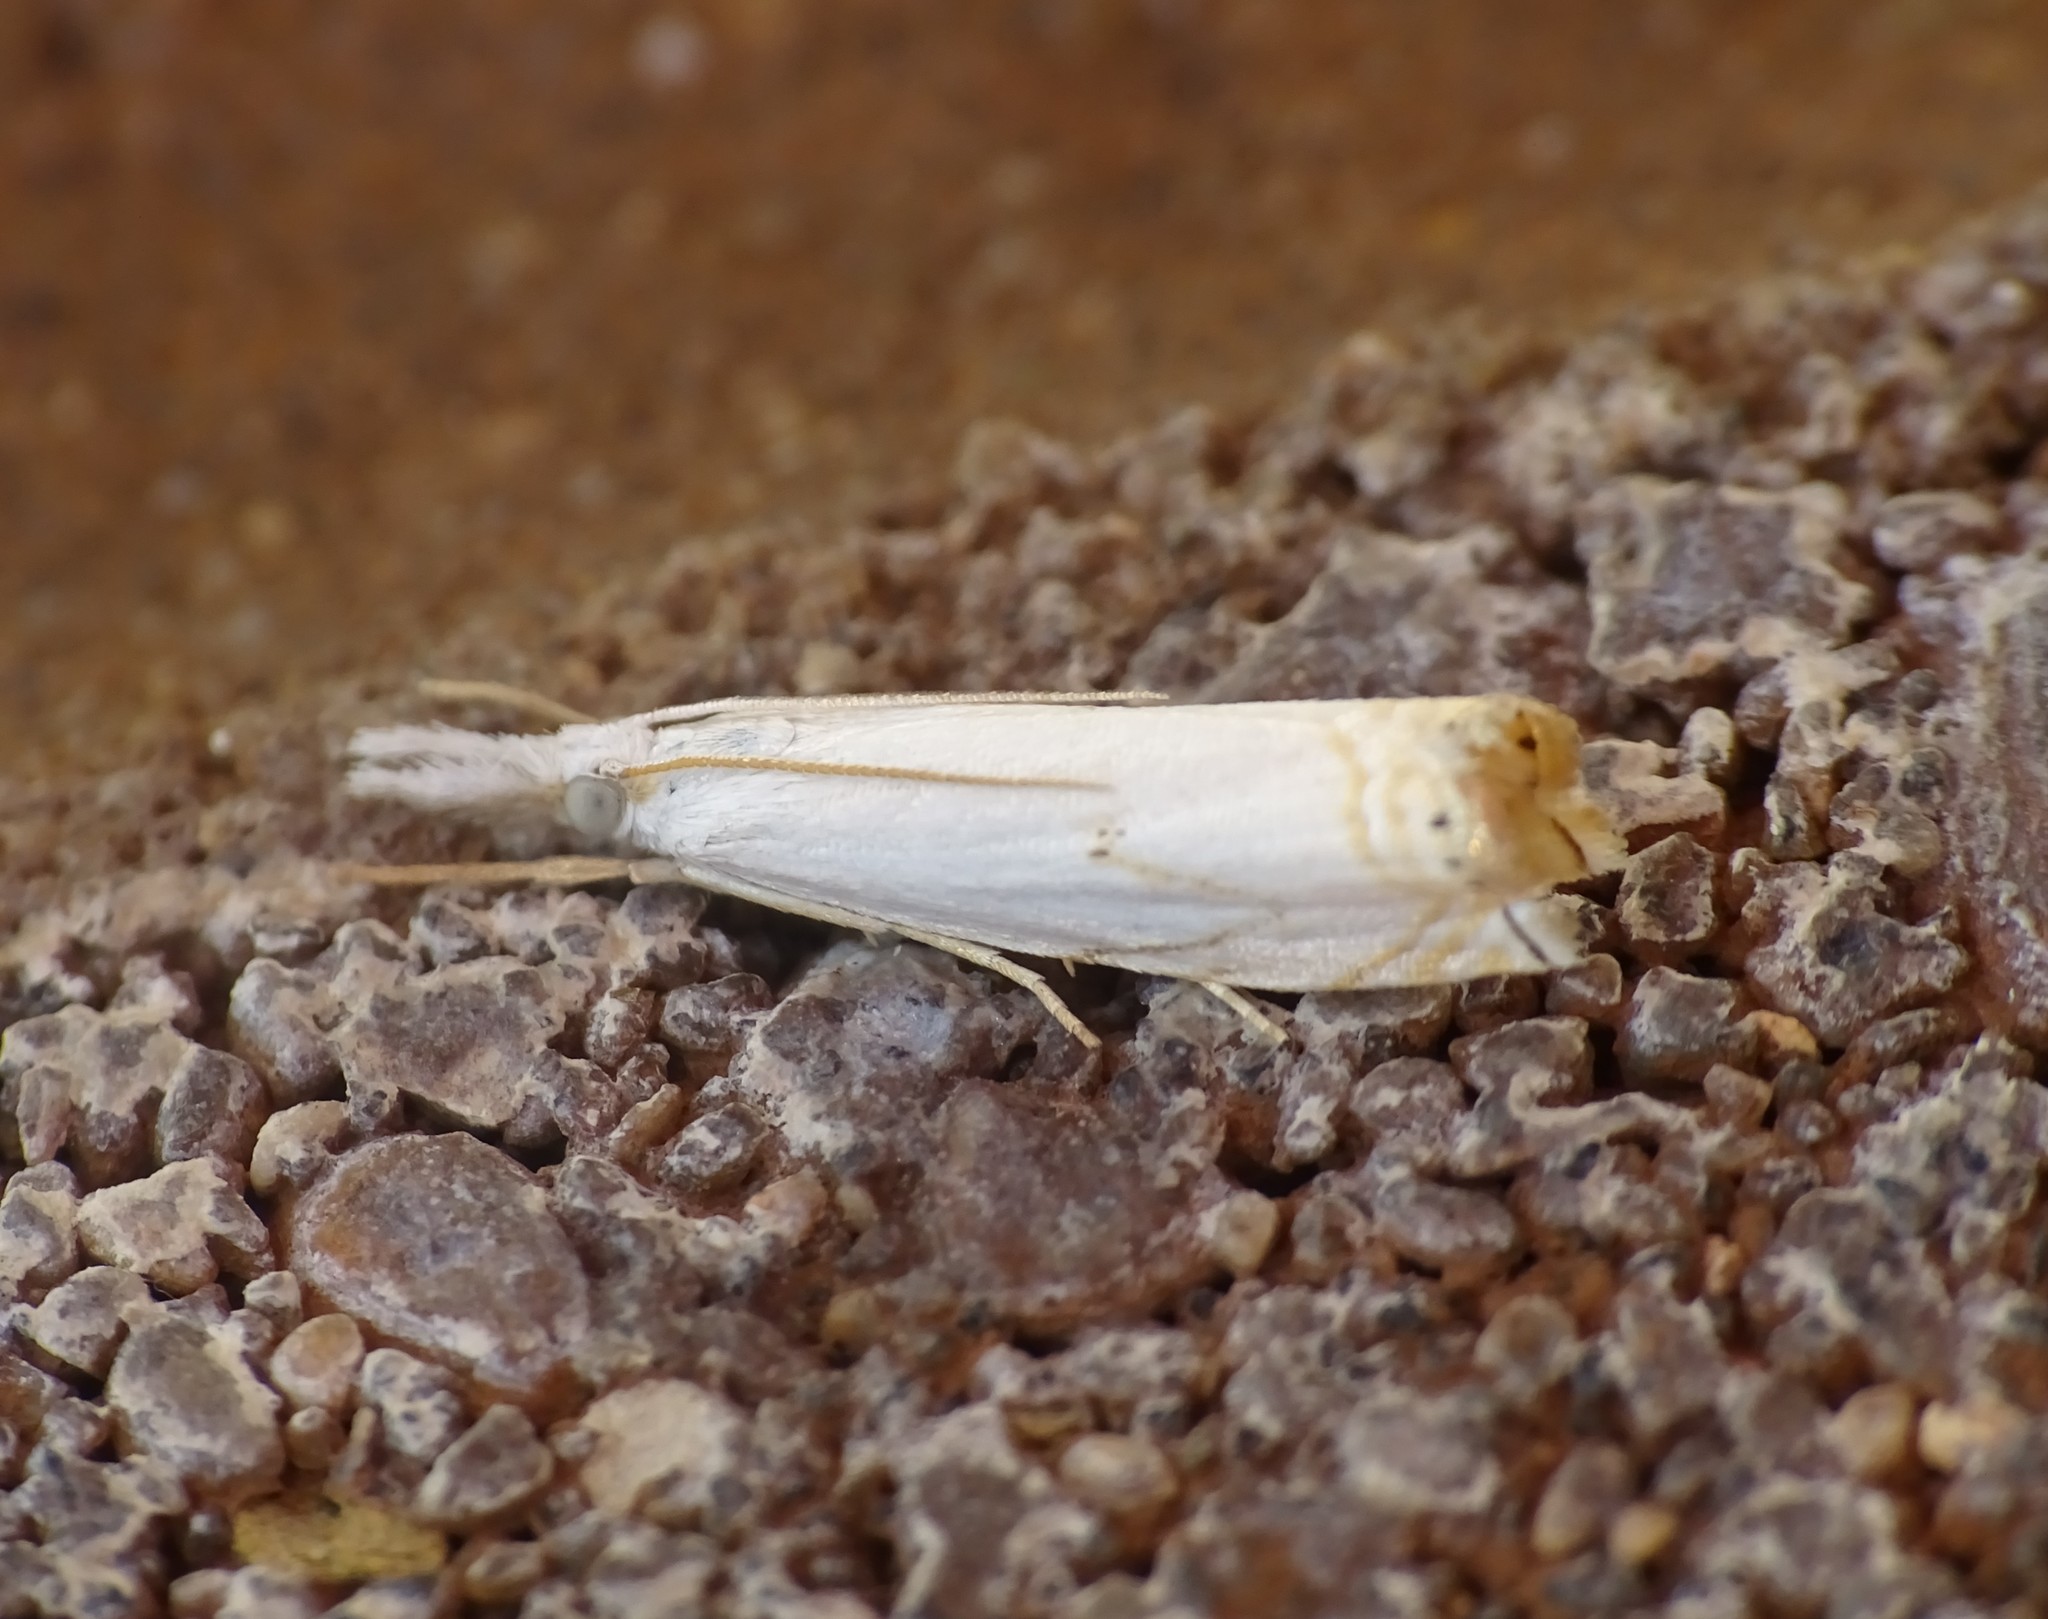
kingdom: Animalia
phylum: Arthropoda
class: Insecta
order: Lepidoptera
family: Crambidae
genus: Crambus
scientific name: Crambus albellus
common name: Small white grass-veneer
